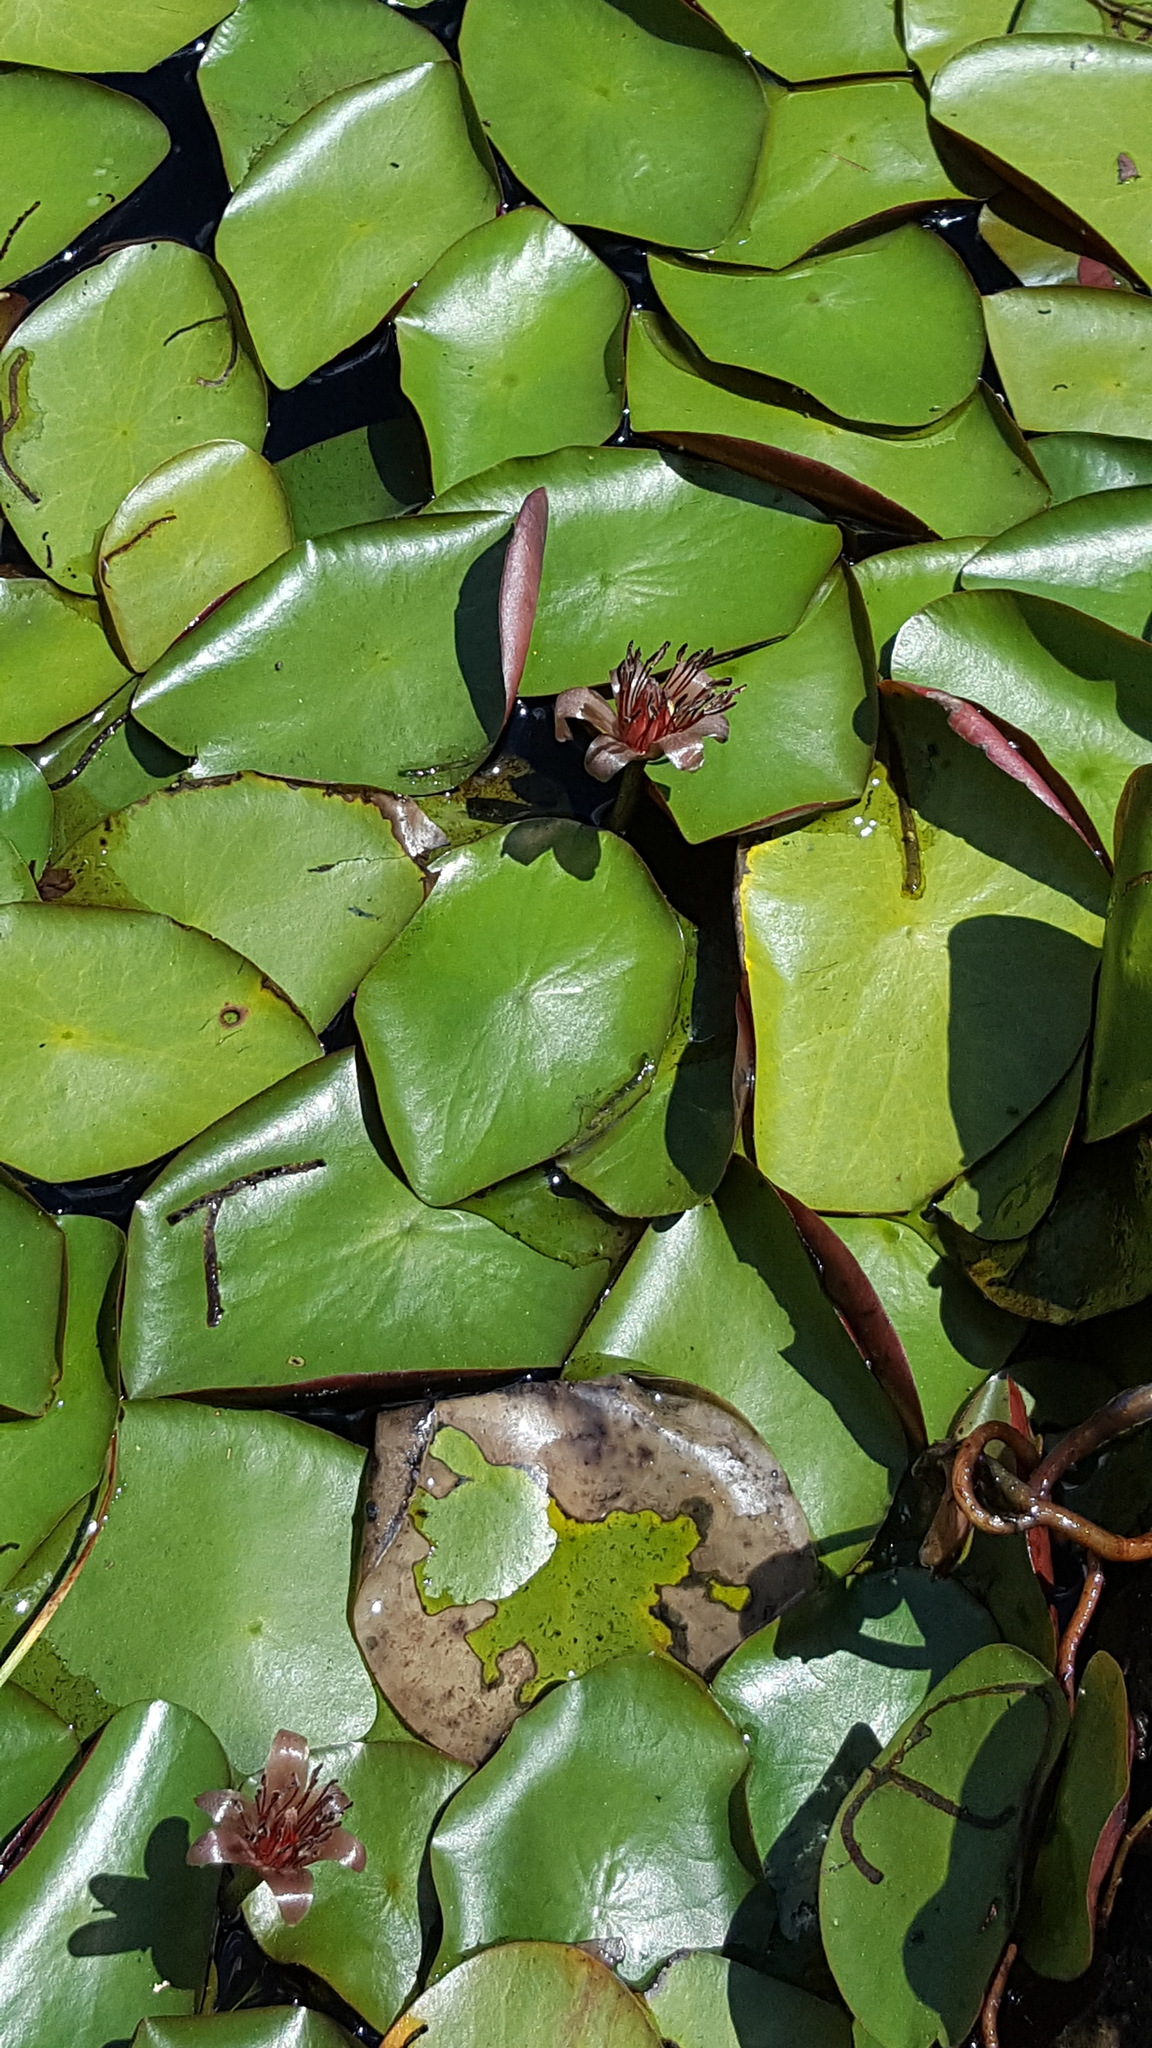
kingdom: Plantae
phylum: Tracheophyta
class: Magnoliopsida
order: Nymphaeales
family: Cabombaceae
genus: Brasenia
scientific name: Brasenia schreberi
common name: Water-shield
